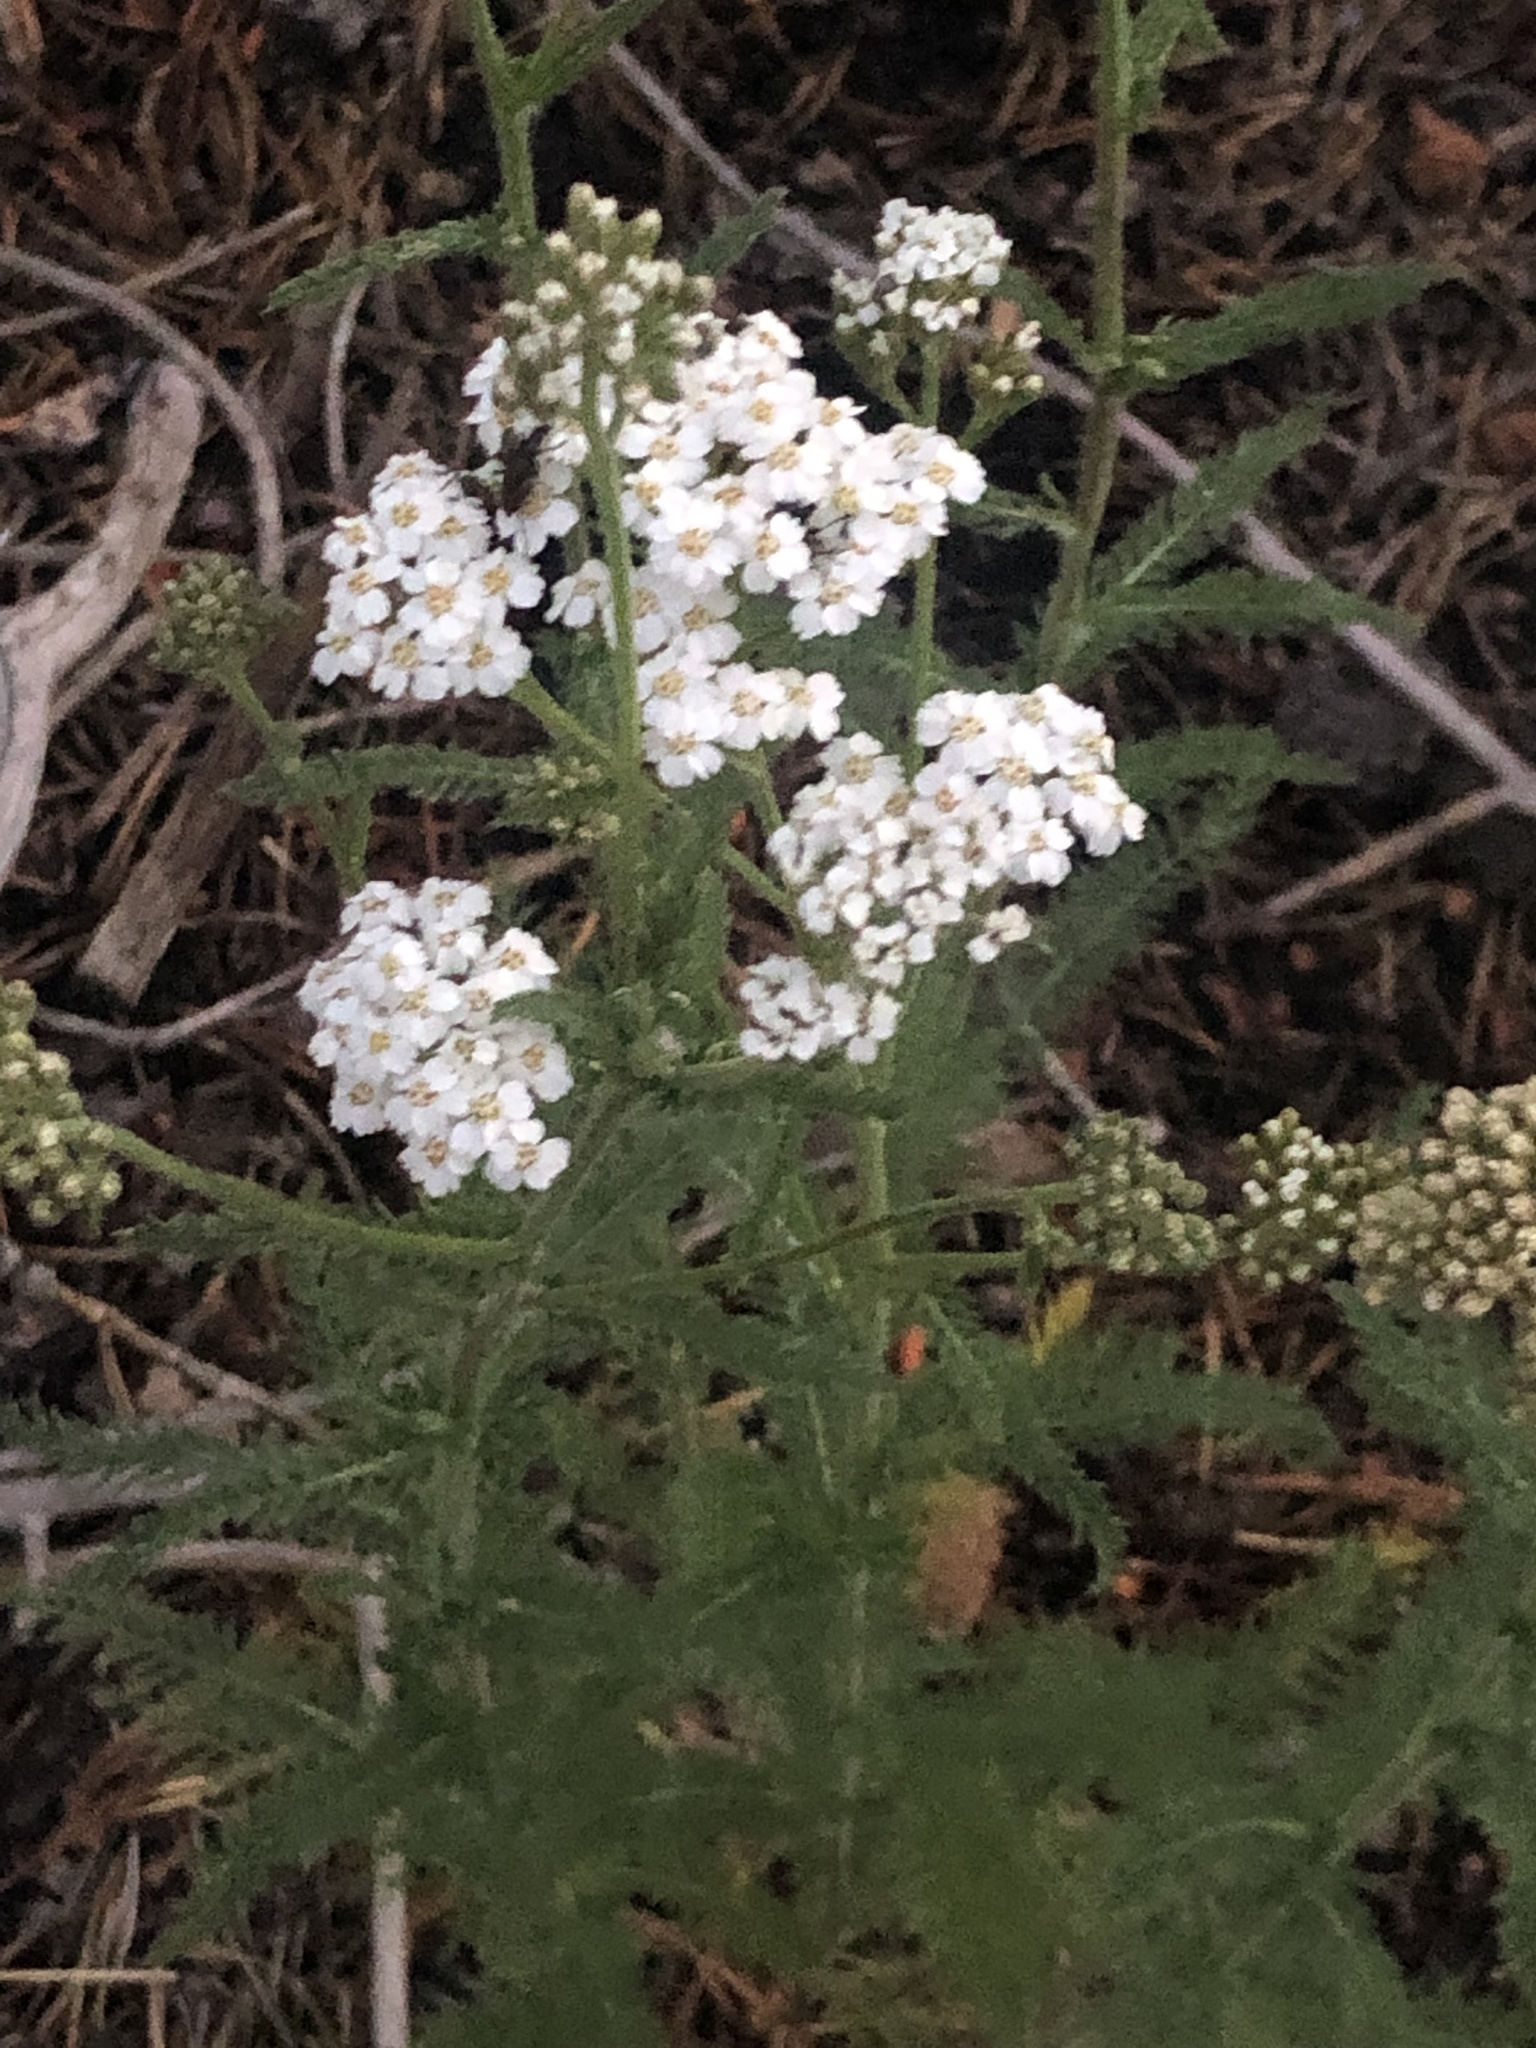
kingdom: Plantae
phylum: Tracheophyta
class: Magnoliopsida
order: Asterales
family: Asteraceae
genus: Achillea
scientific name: Achillea millefolium
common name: Yarrow
